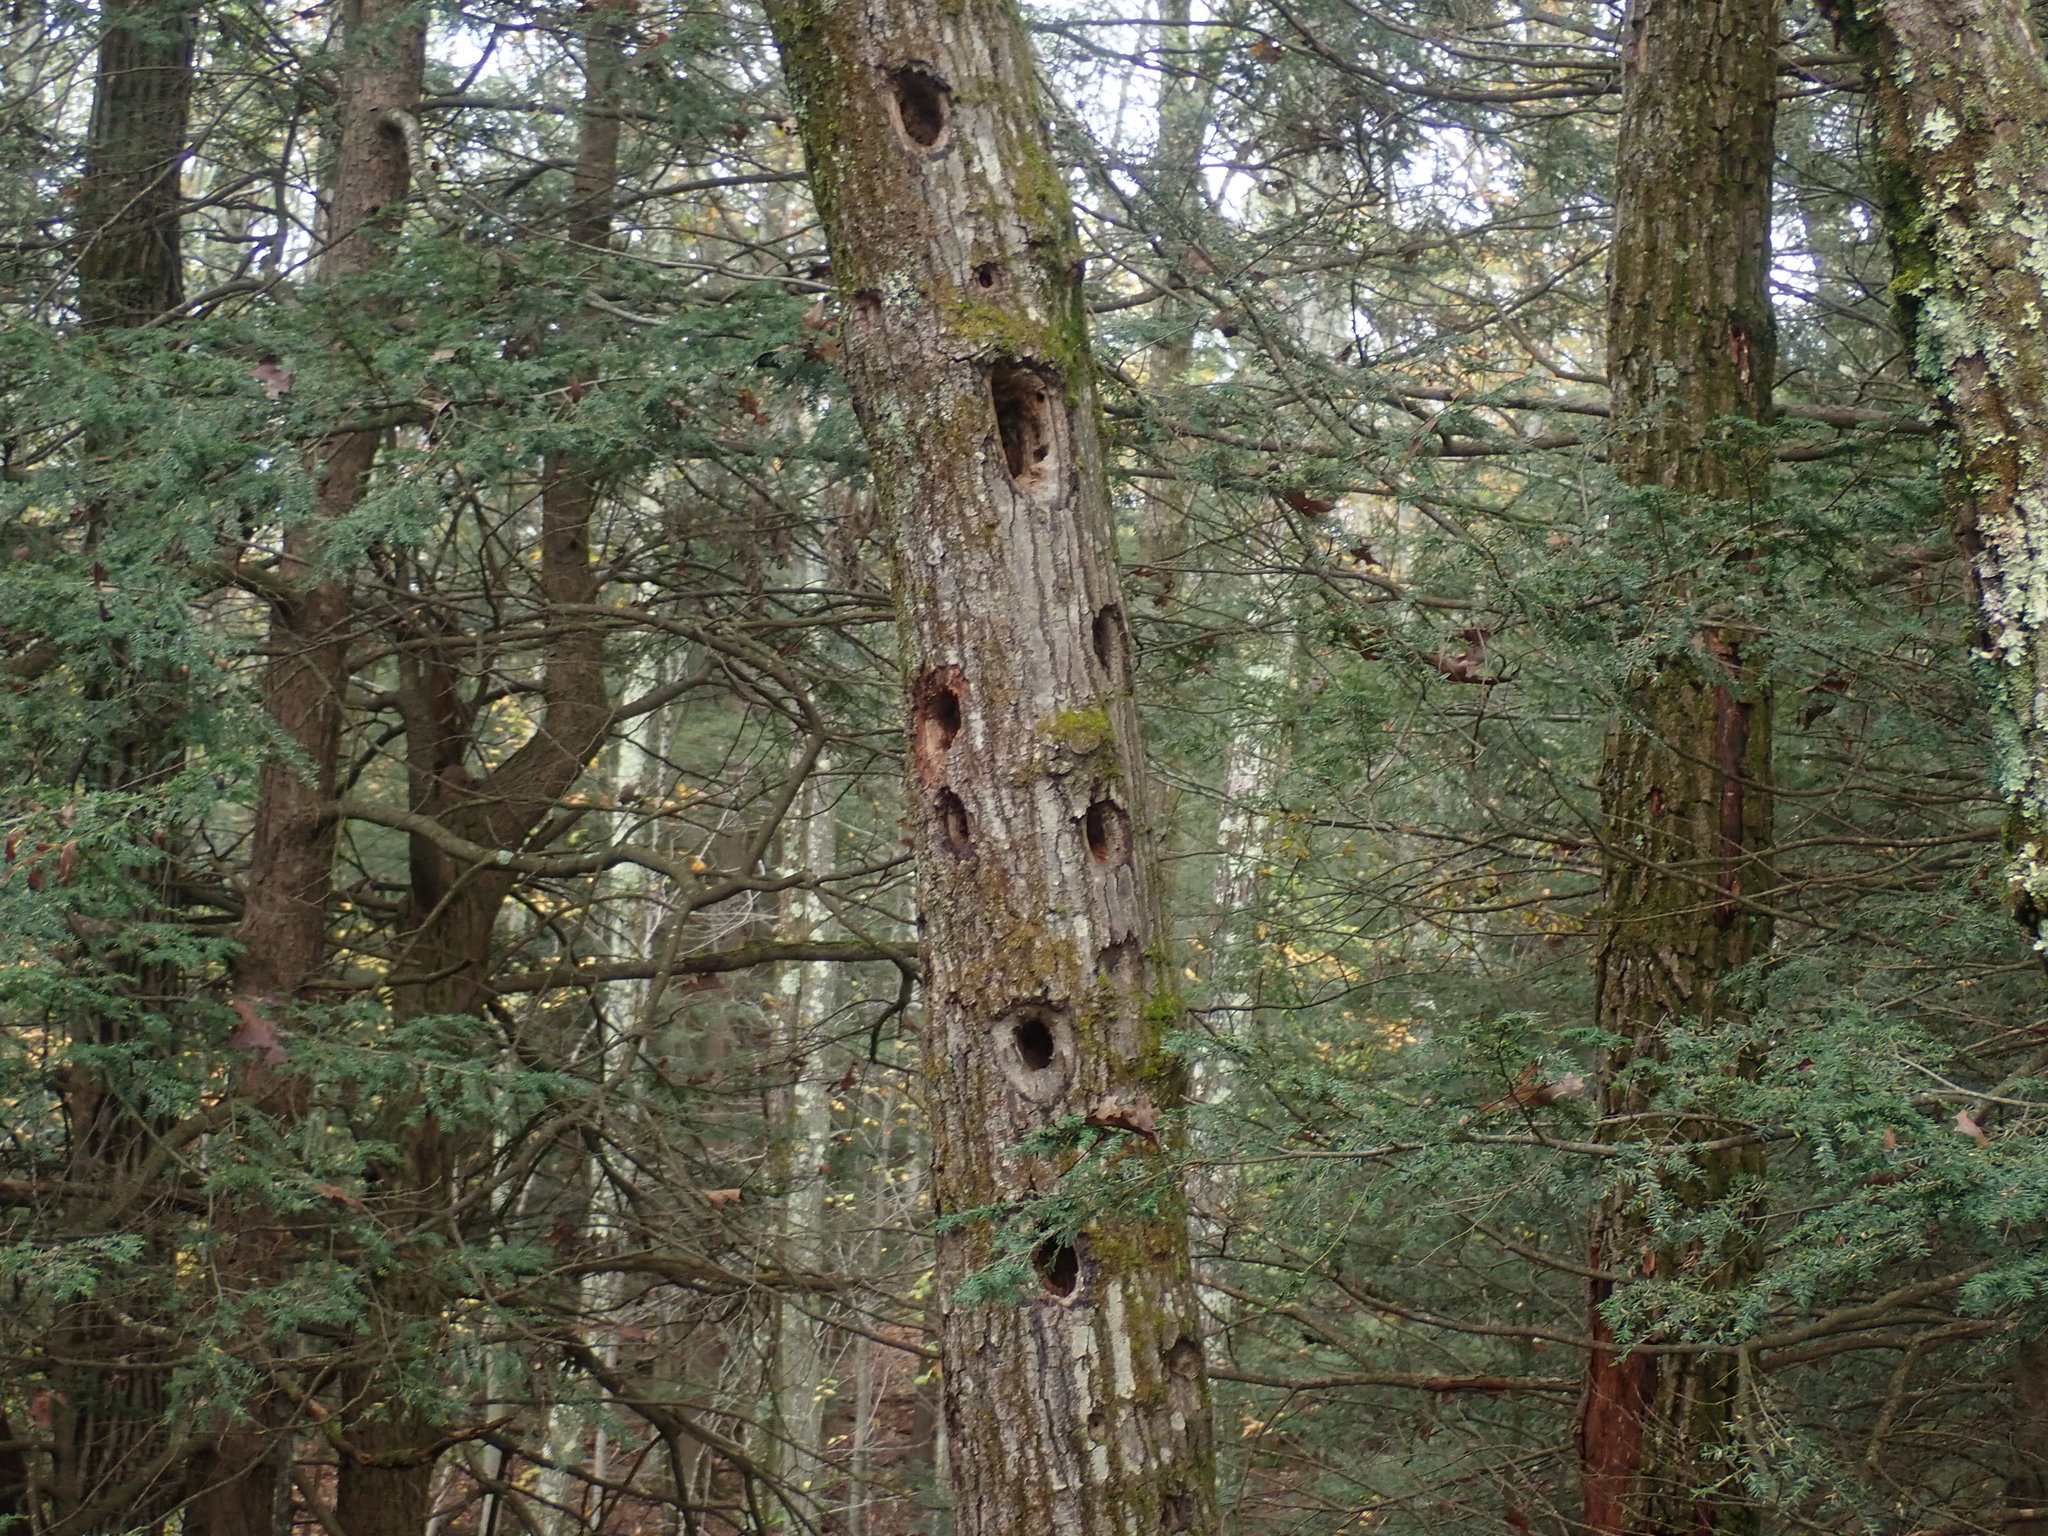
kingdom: Animalia
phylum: Chordata
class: Aves
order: Piciformes
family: Picidae
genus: Dryocopus
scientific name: Dryocopus pileatus
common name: Pileated woodpecker
